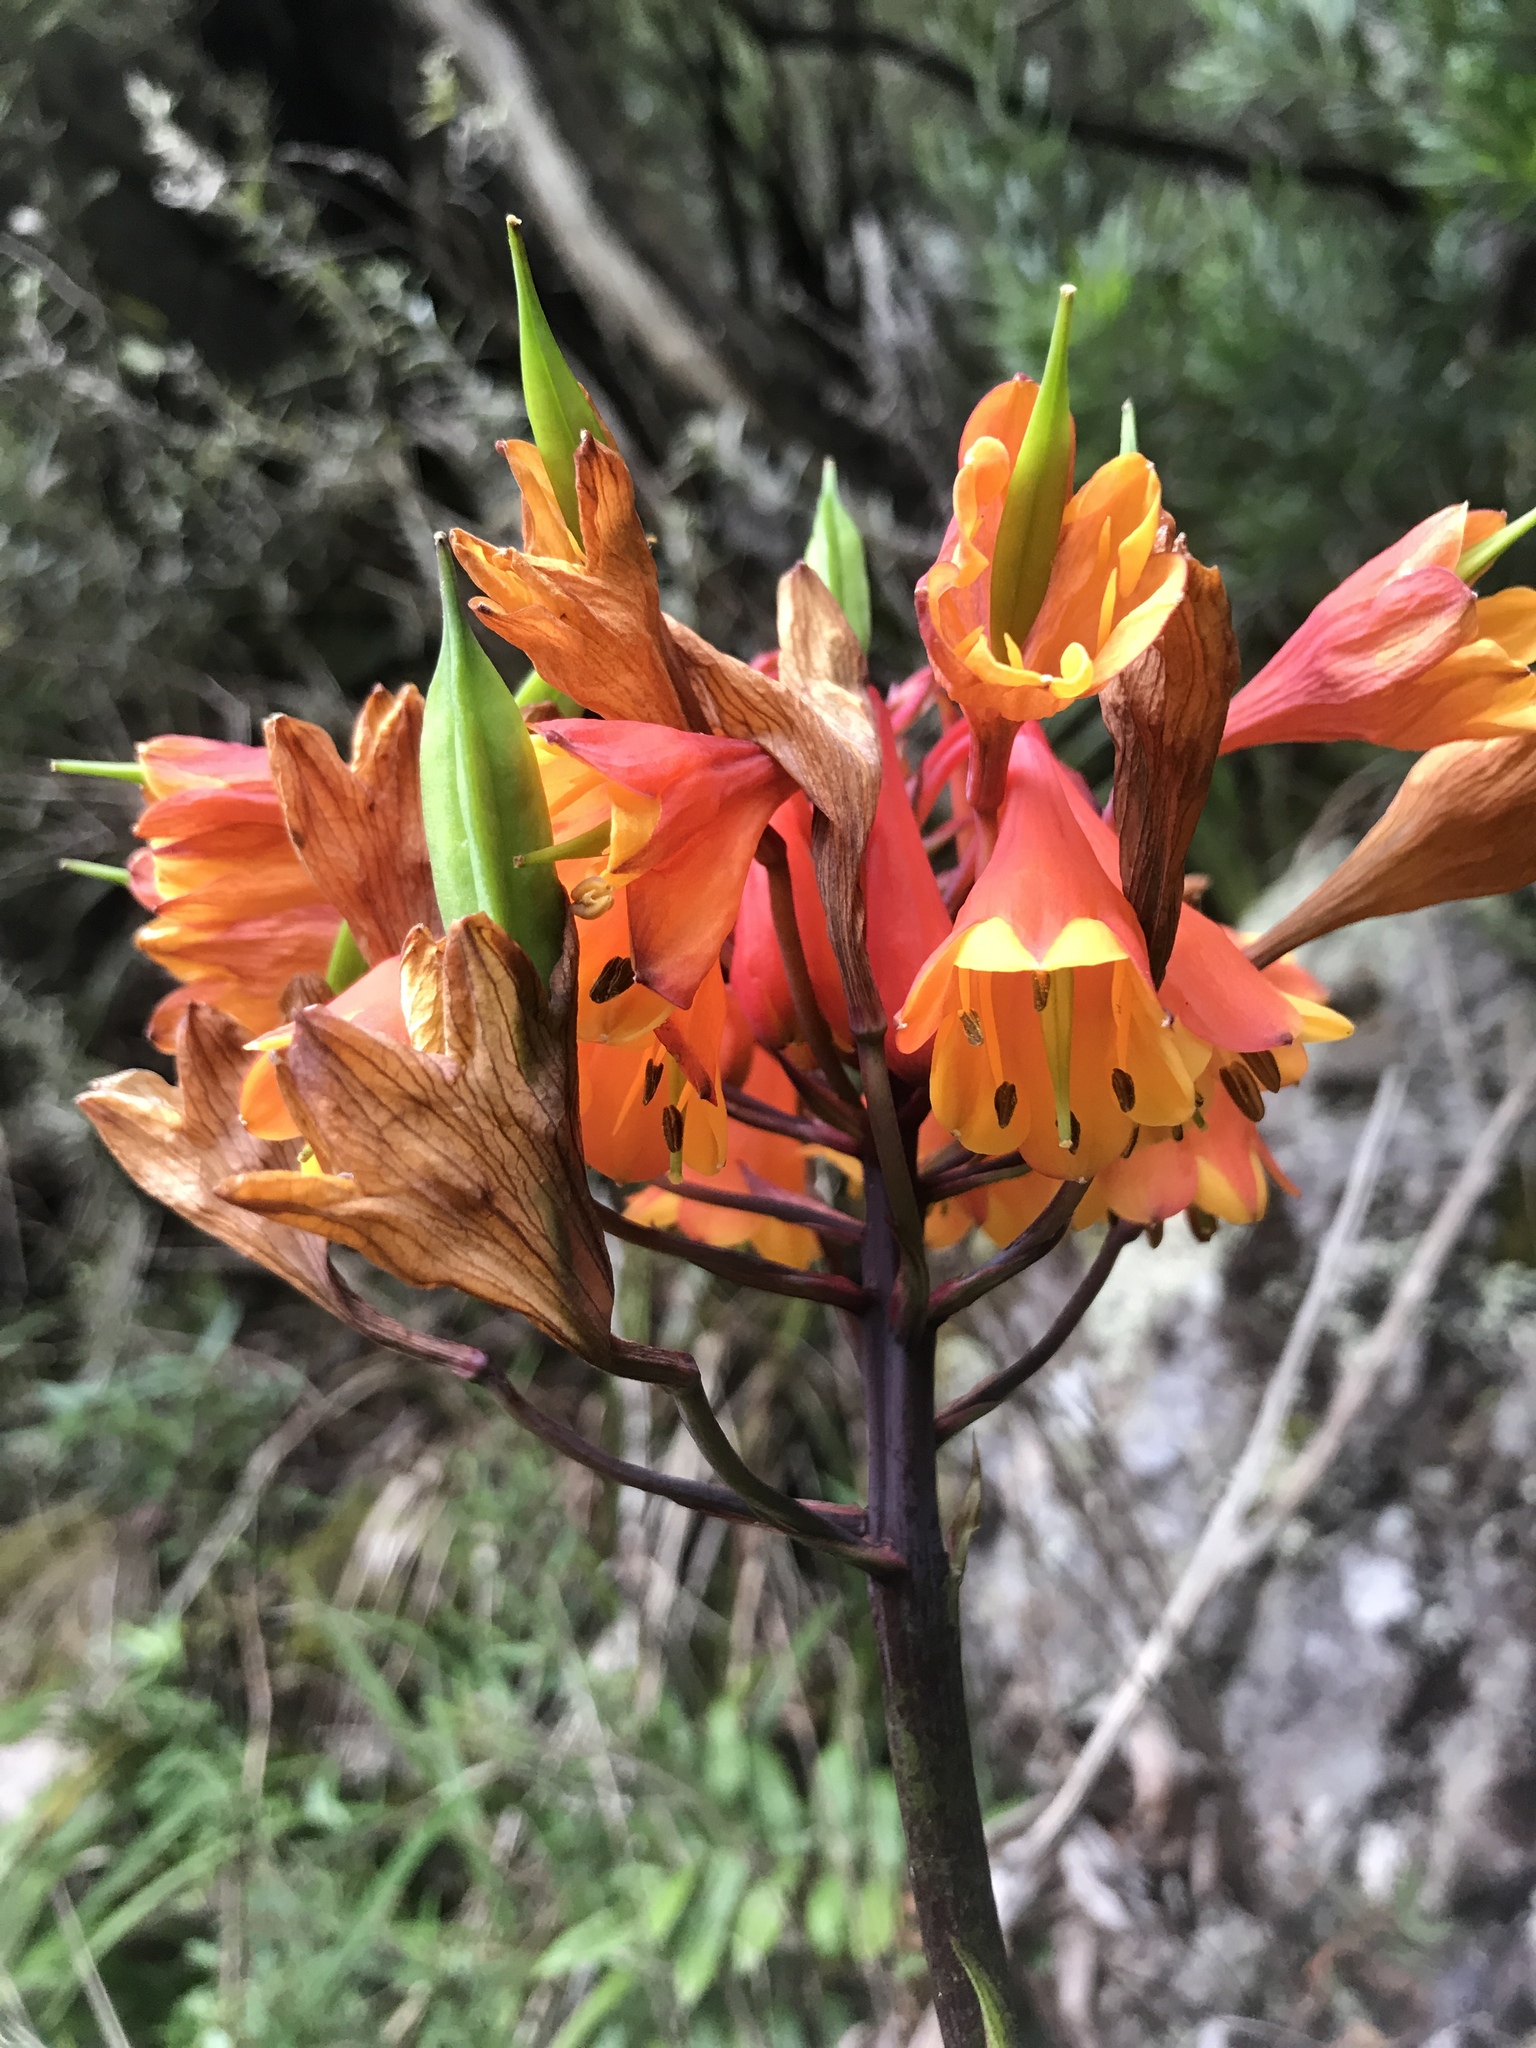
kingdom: Plantae
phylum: Tracheophyta
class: Liliopsida
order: Asparagales
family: Blandfordiaceae
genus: Blandfordia
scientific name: Blandfordia punicea
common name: Tasmanian christmas-bell
